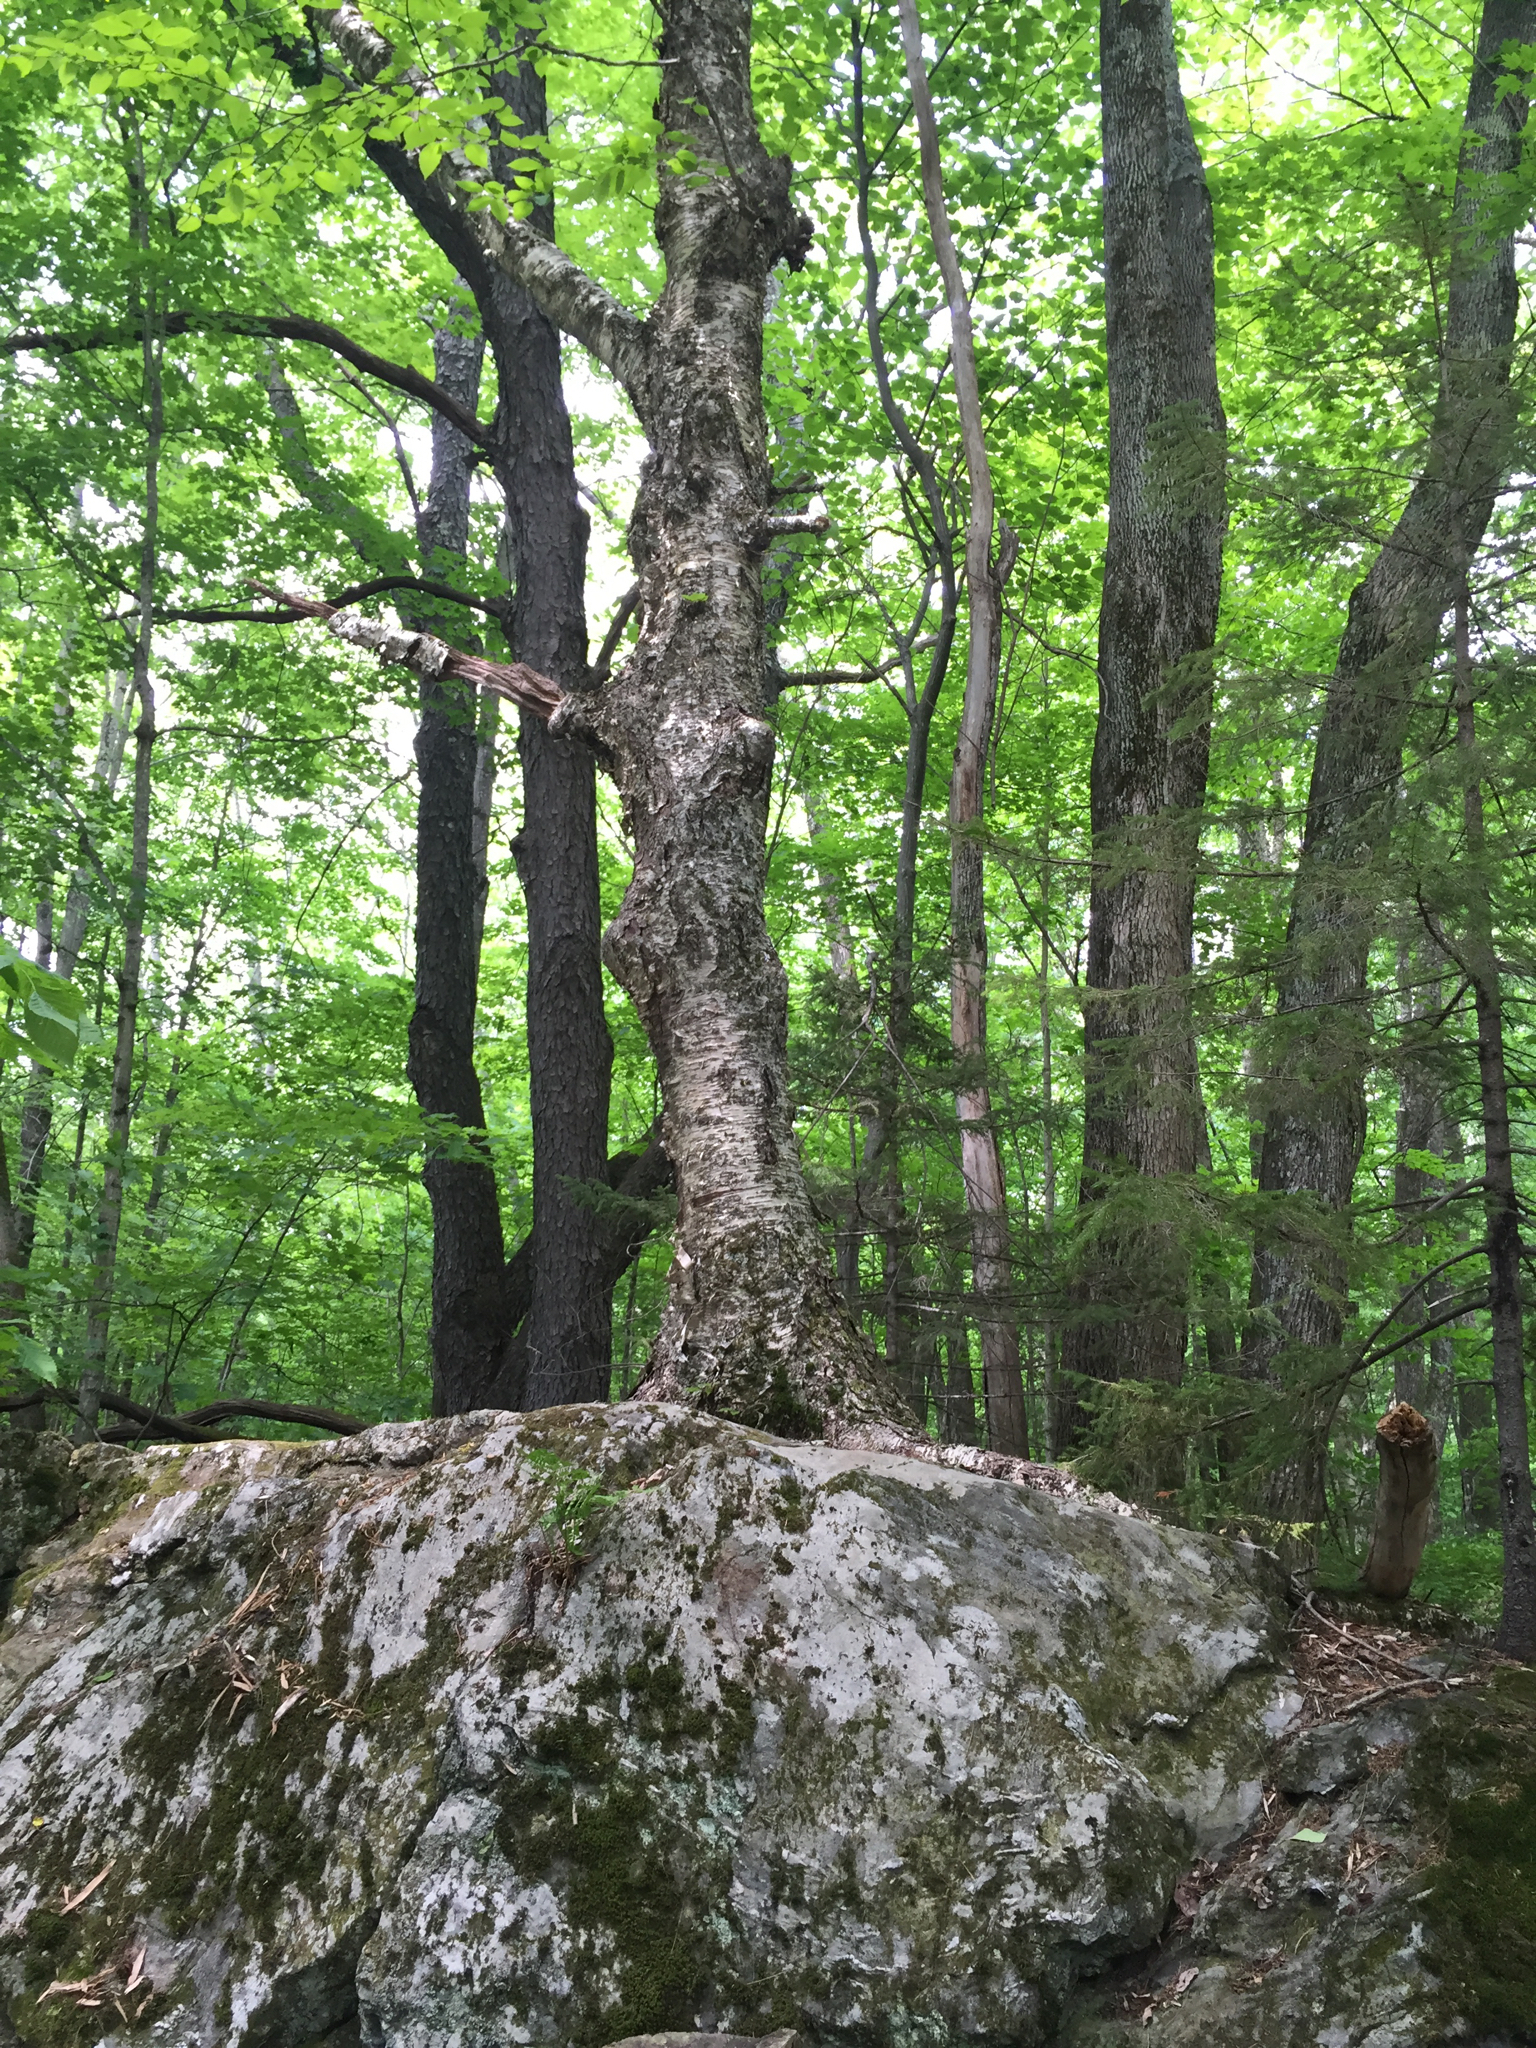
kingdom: Plantae
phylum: Tracheophyta
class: Magnoliopsida
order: Fagales
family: Betulaceae
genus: Betula
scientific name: Betula alleghaniensis
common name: Yellow birch
